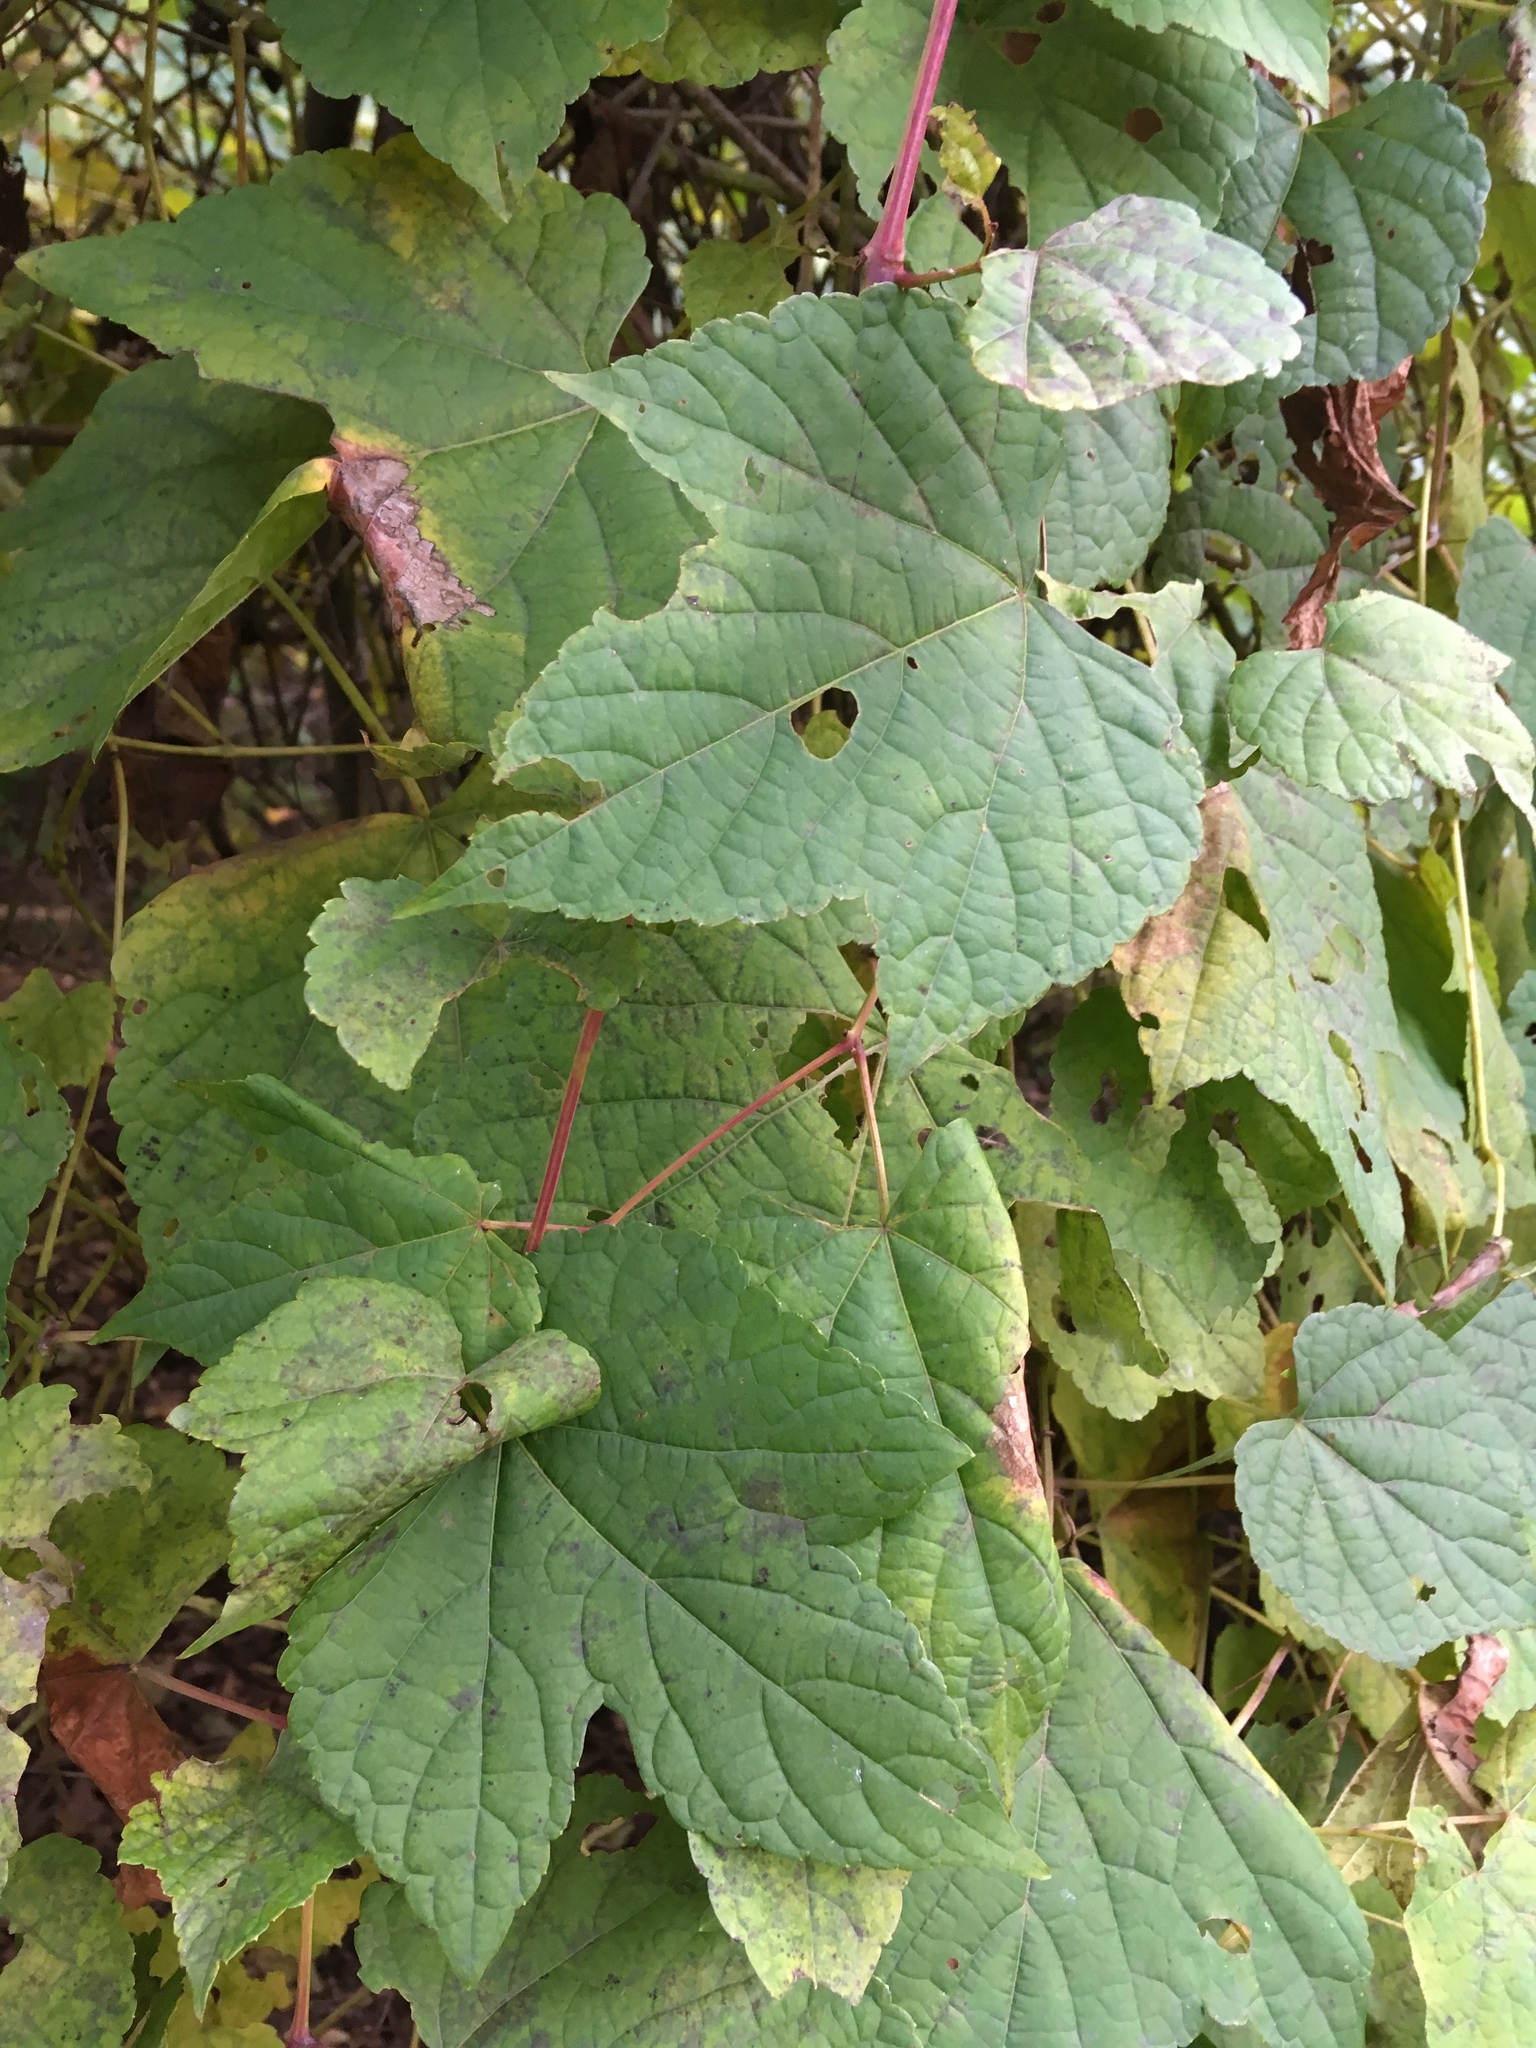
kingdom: Plantae
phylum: Tracheophyta
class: Magnoliopsida
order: Vitales
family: Vitaceae
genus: Ampelopsis
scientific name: Ampelopsis glandulosa
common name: Amur peppervine
